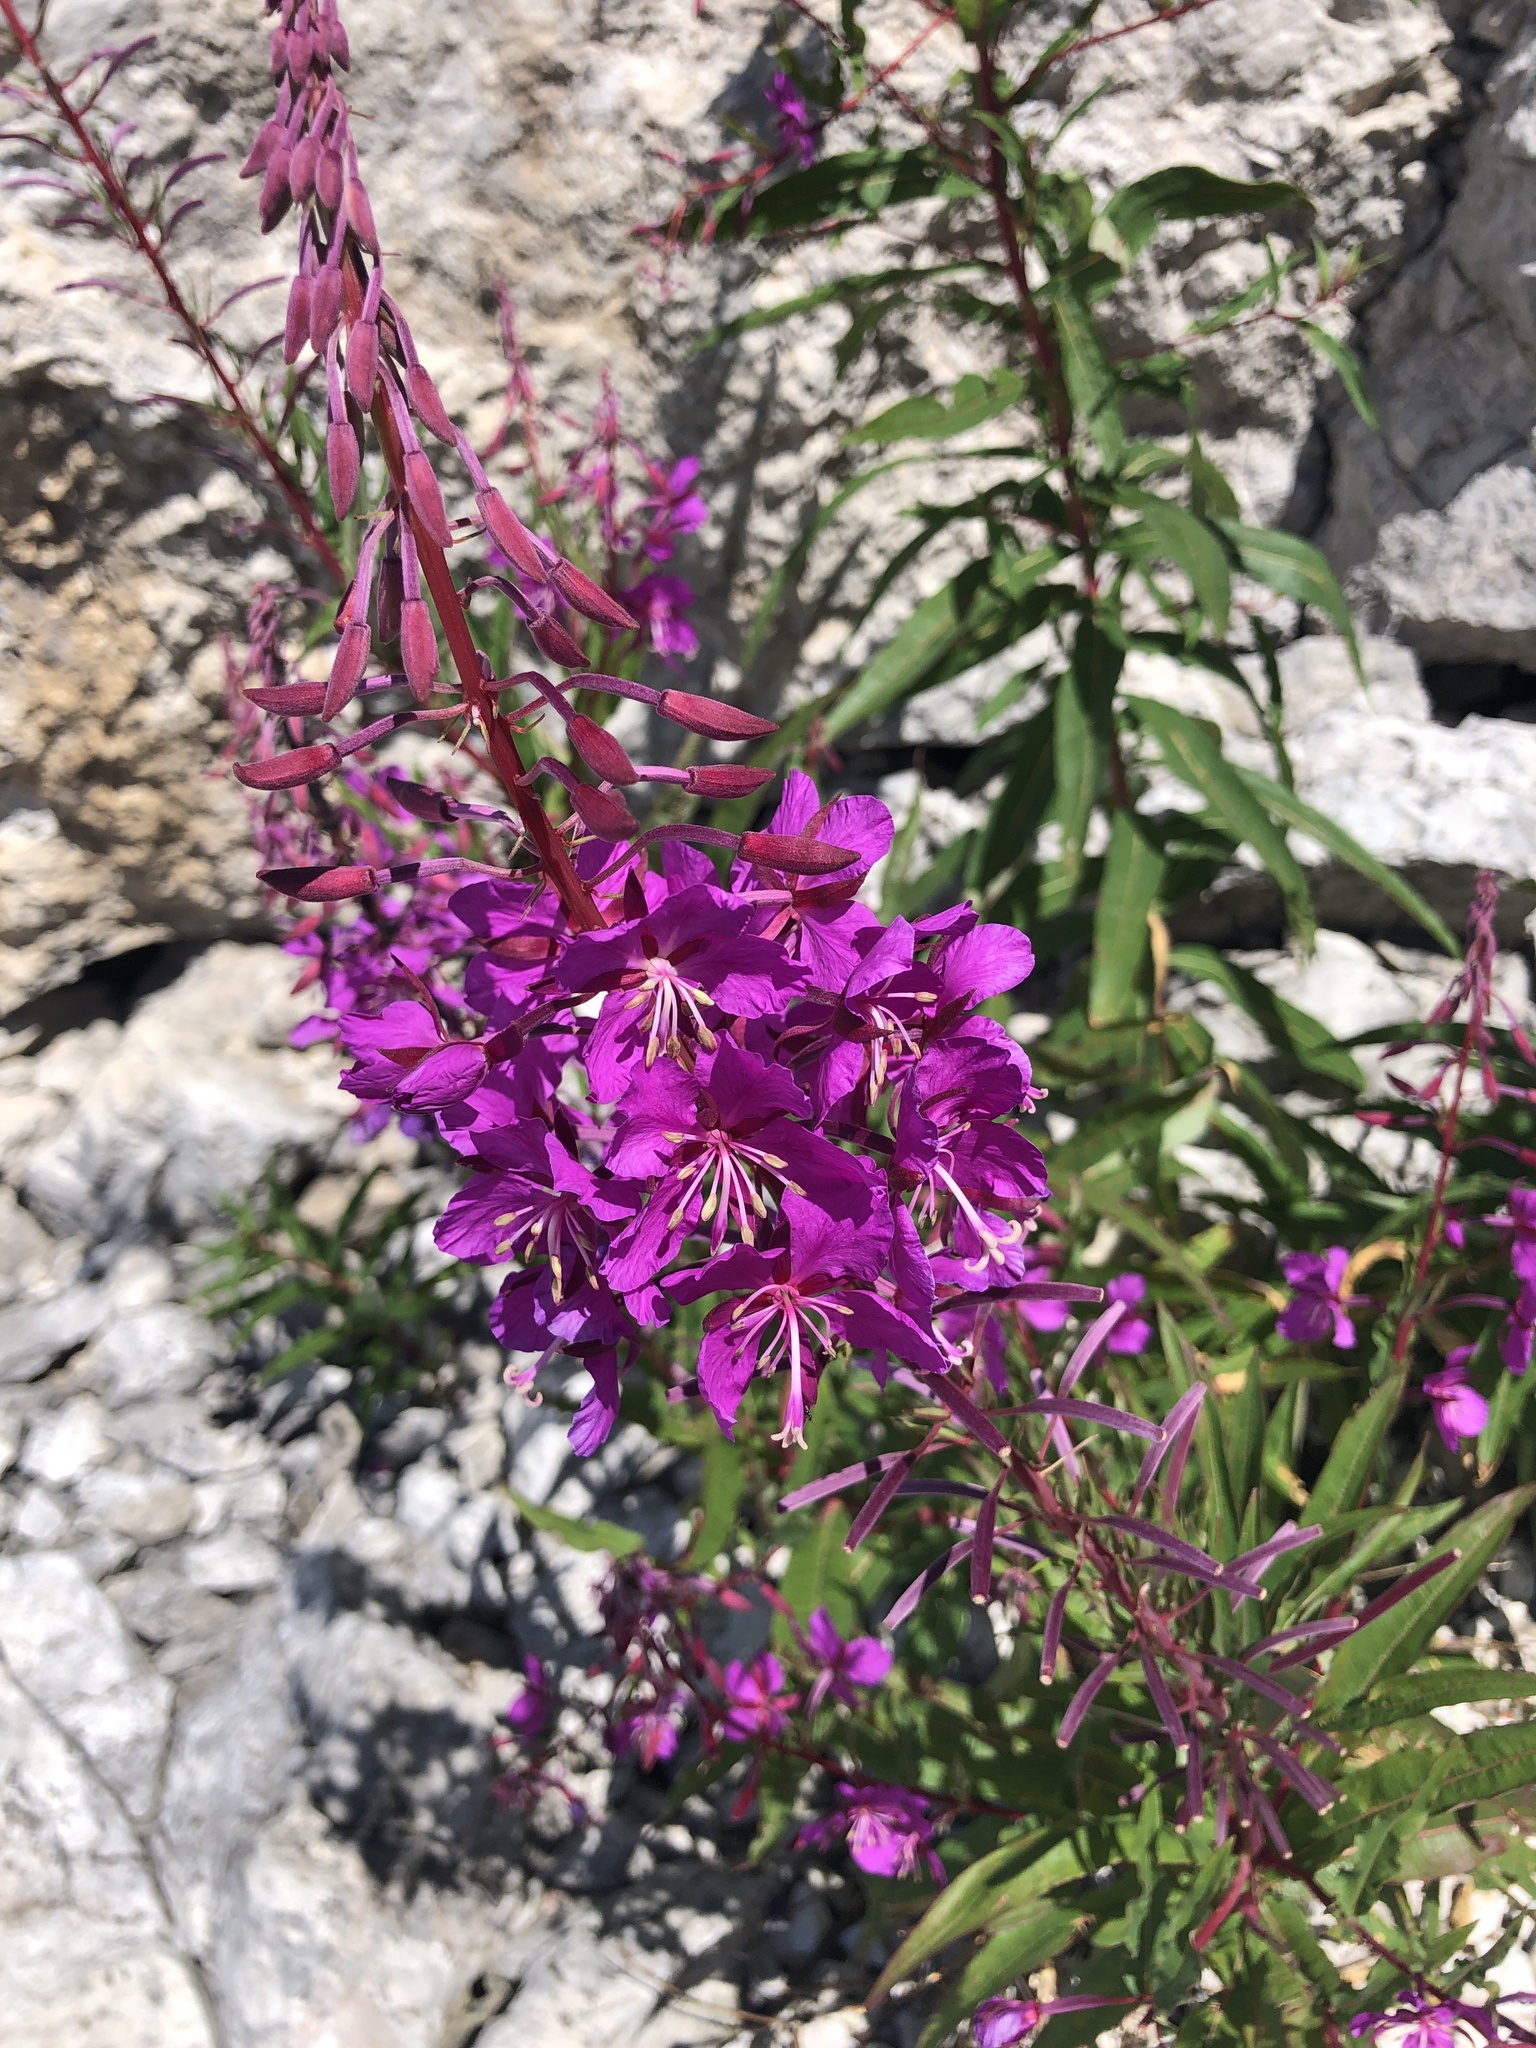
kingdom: Plantae
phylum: Tracheophyta
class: Magnoliopsida
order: Myrtales
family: Onagraceae
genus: Chamaenerion
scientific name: Chamaenerion angustifolium
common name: Fireweed
